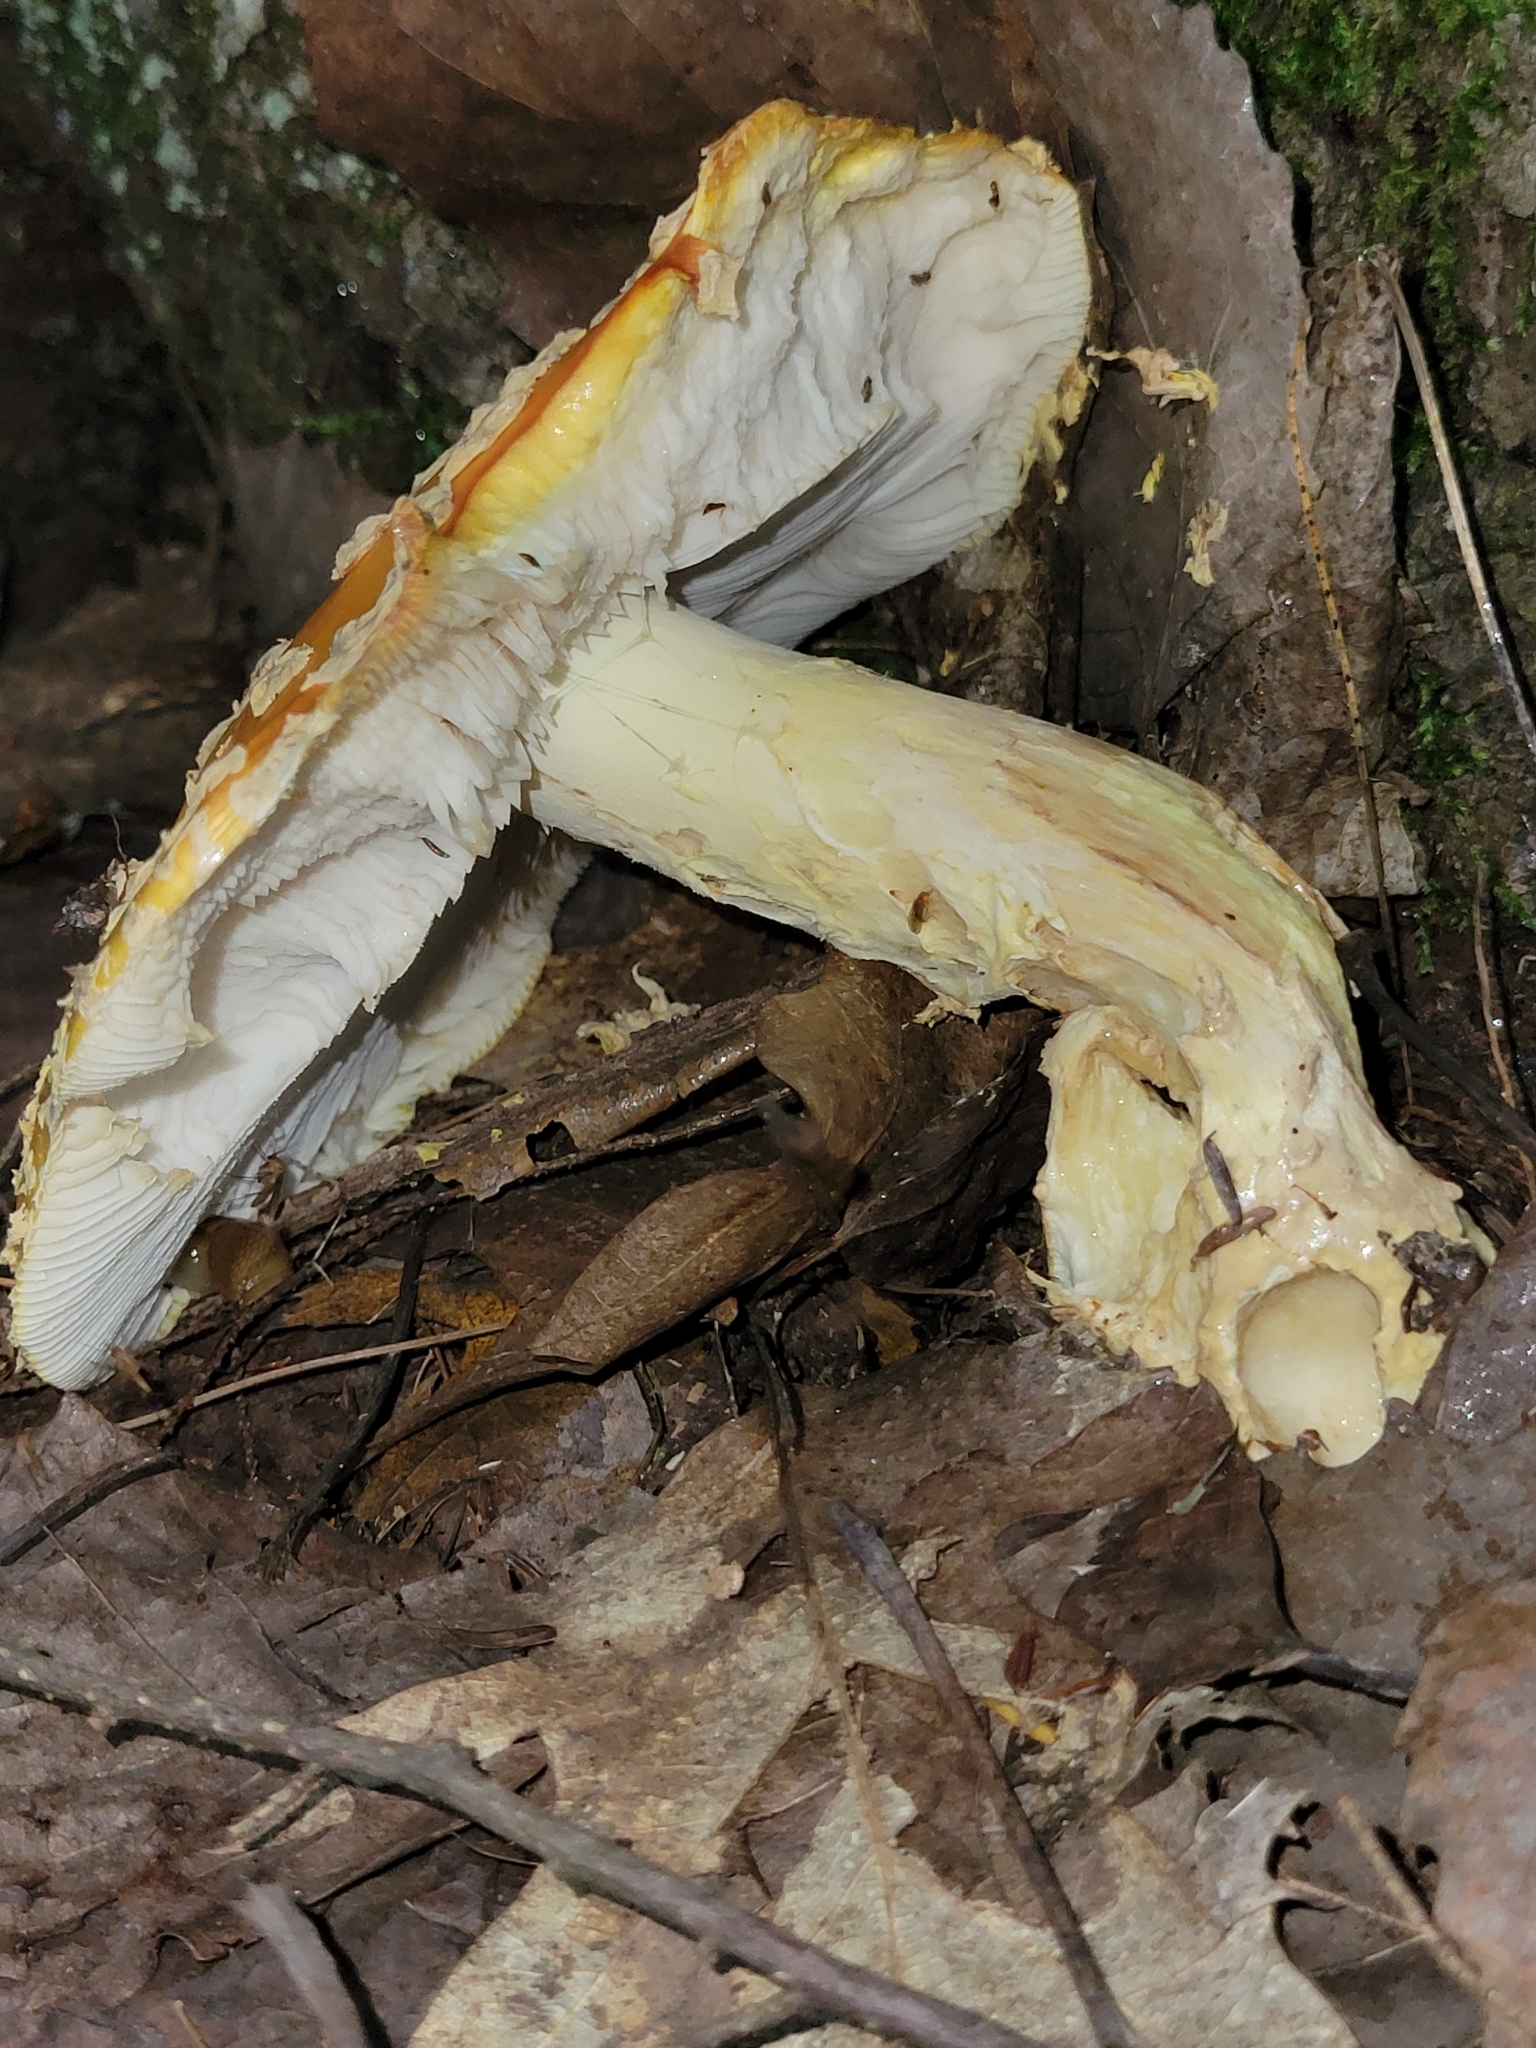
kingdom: Fungi
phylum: Basidiomycota
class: Agaricomycetes
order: Agaricales
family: Amanitaceae
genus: Amanita
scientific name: Amanita muscaria
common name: Fly agaric
